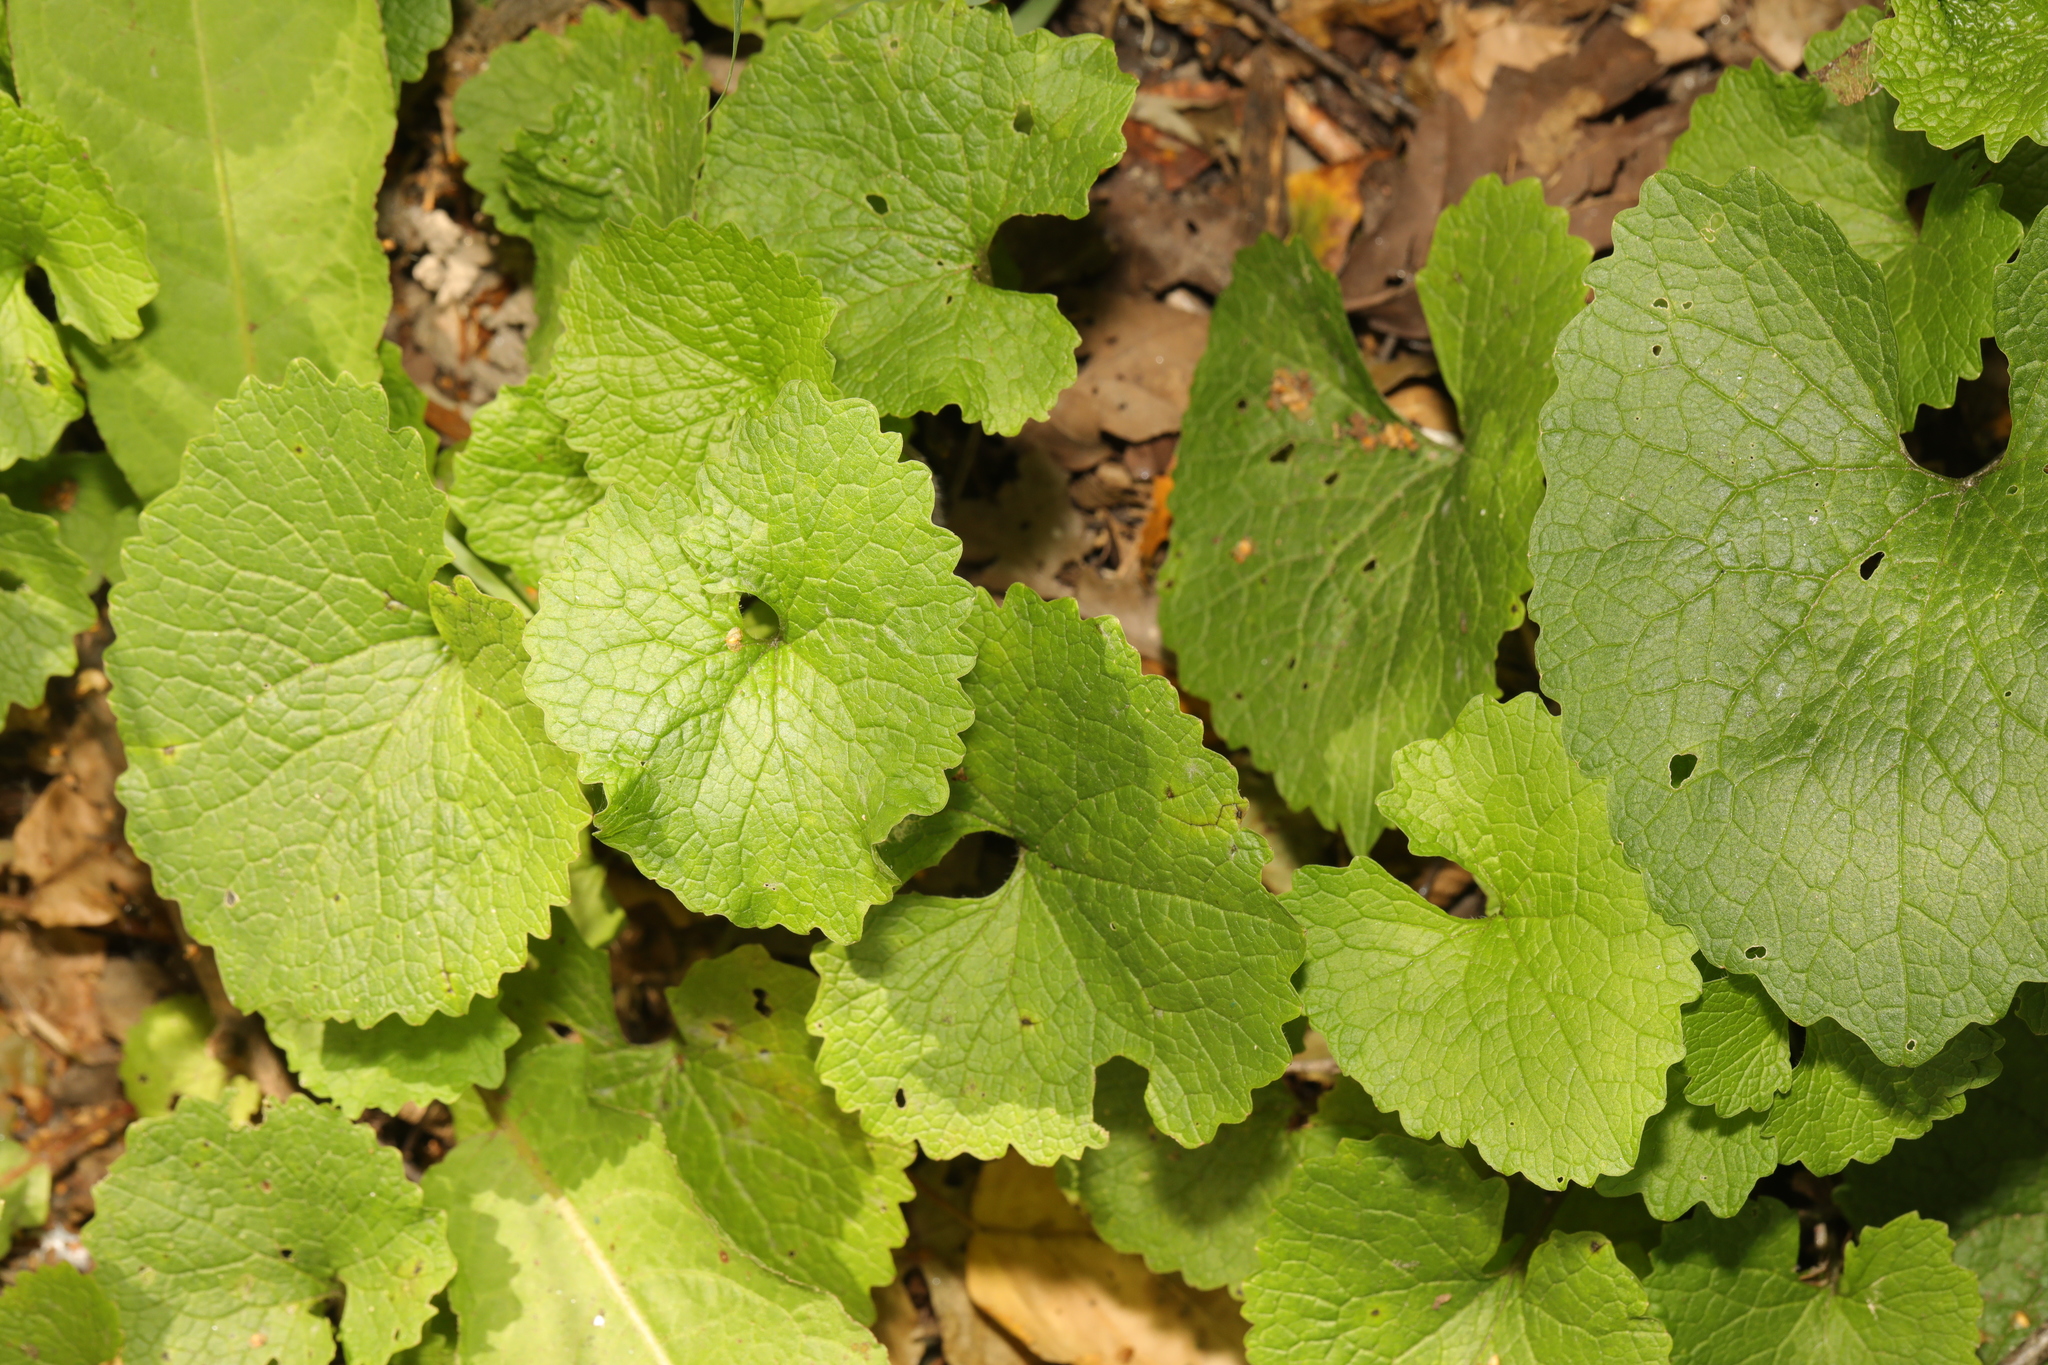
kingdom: Plantae
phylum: Tracheophyta
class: Magnoliopsida
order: Brassicales
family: Brassicaceae
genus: Alliaria
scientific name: Alliaria petiolata
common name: Garlic mustard
